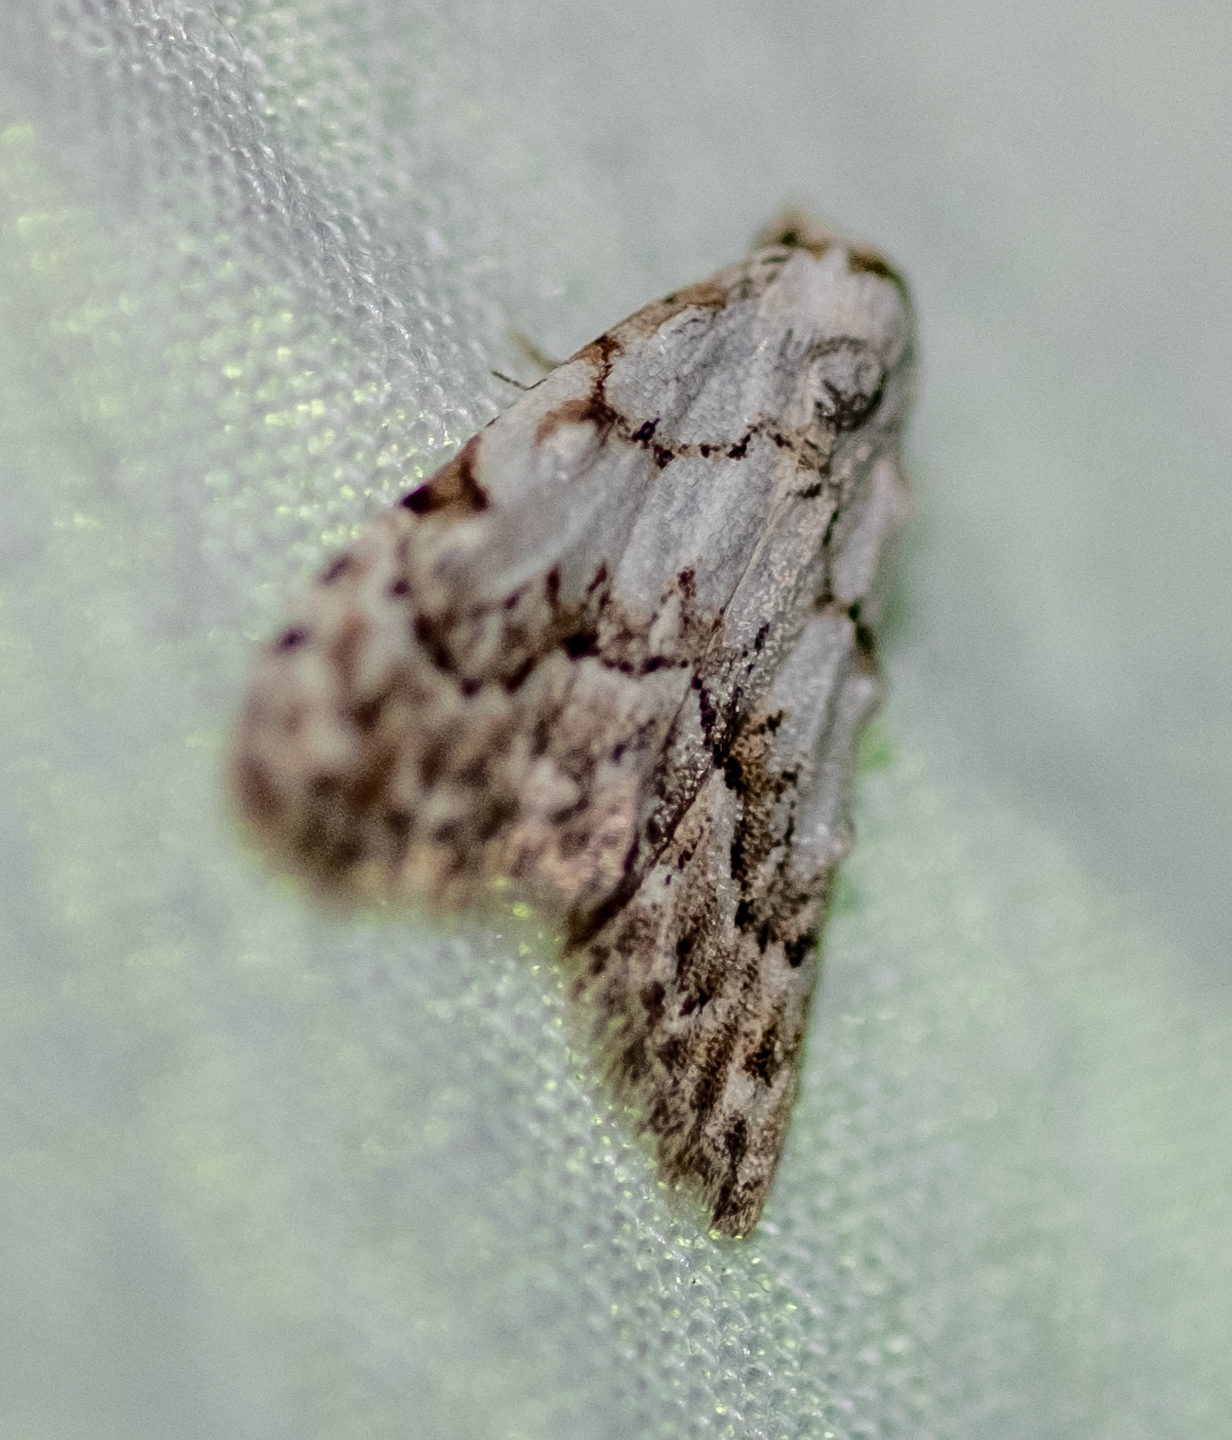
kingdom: Animalia
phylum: Arthropoda
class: Insecta
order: Lepidoptera
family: Nolidae
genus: Nola
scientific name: Nola confusalis
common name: Least black arches
